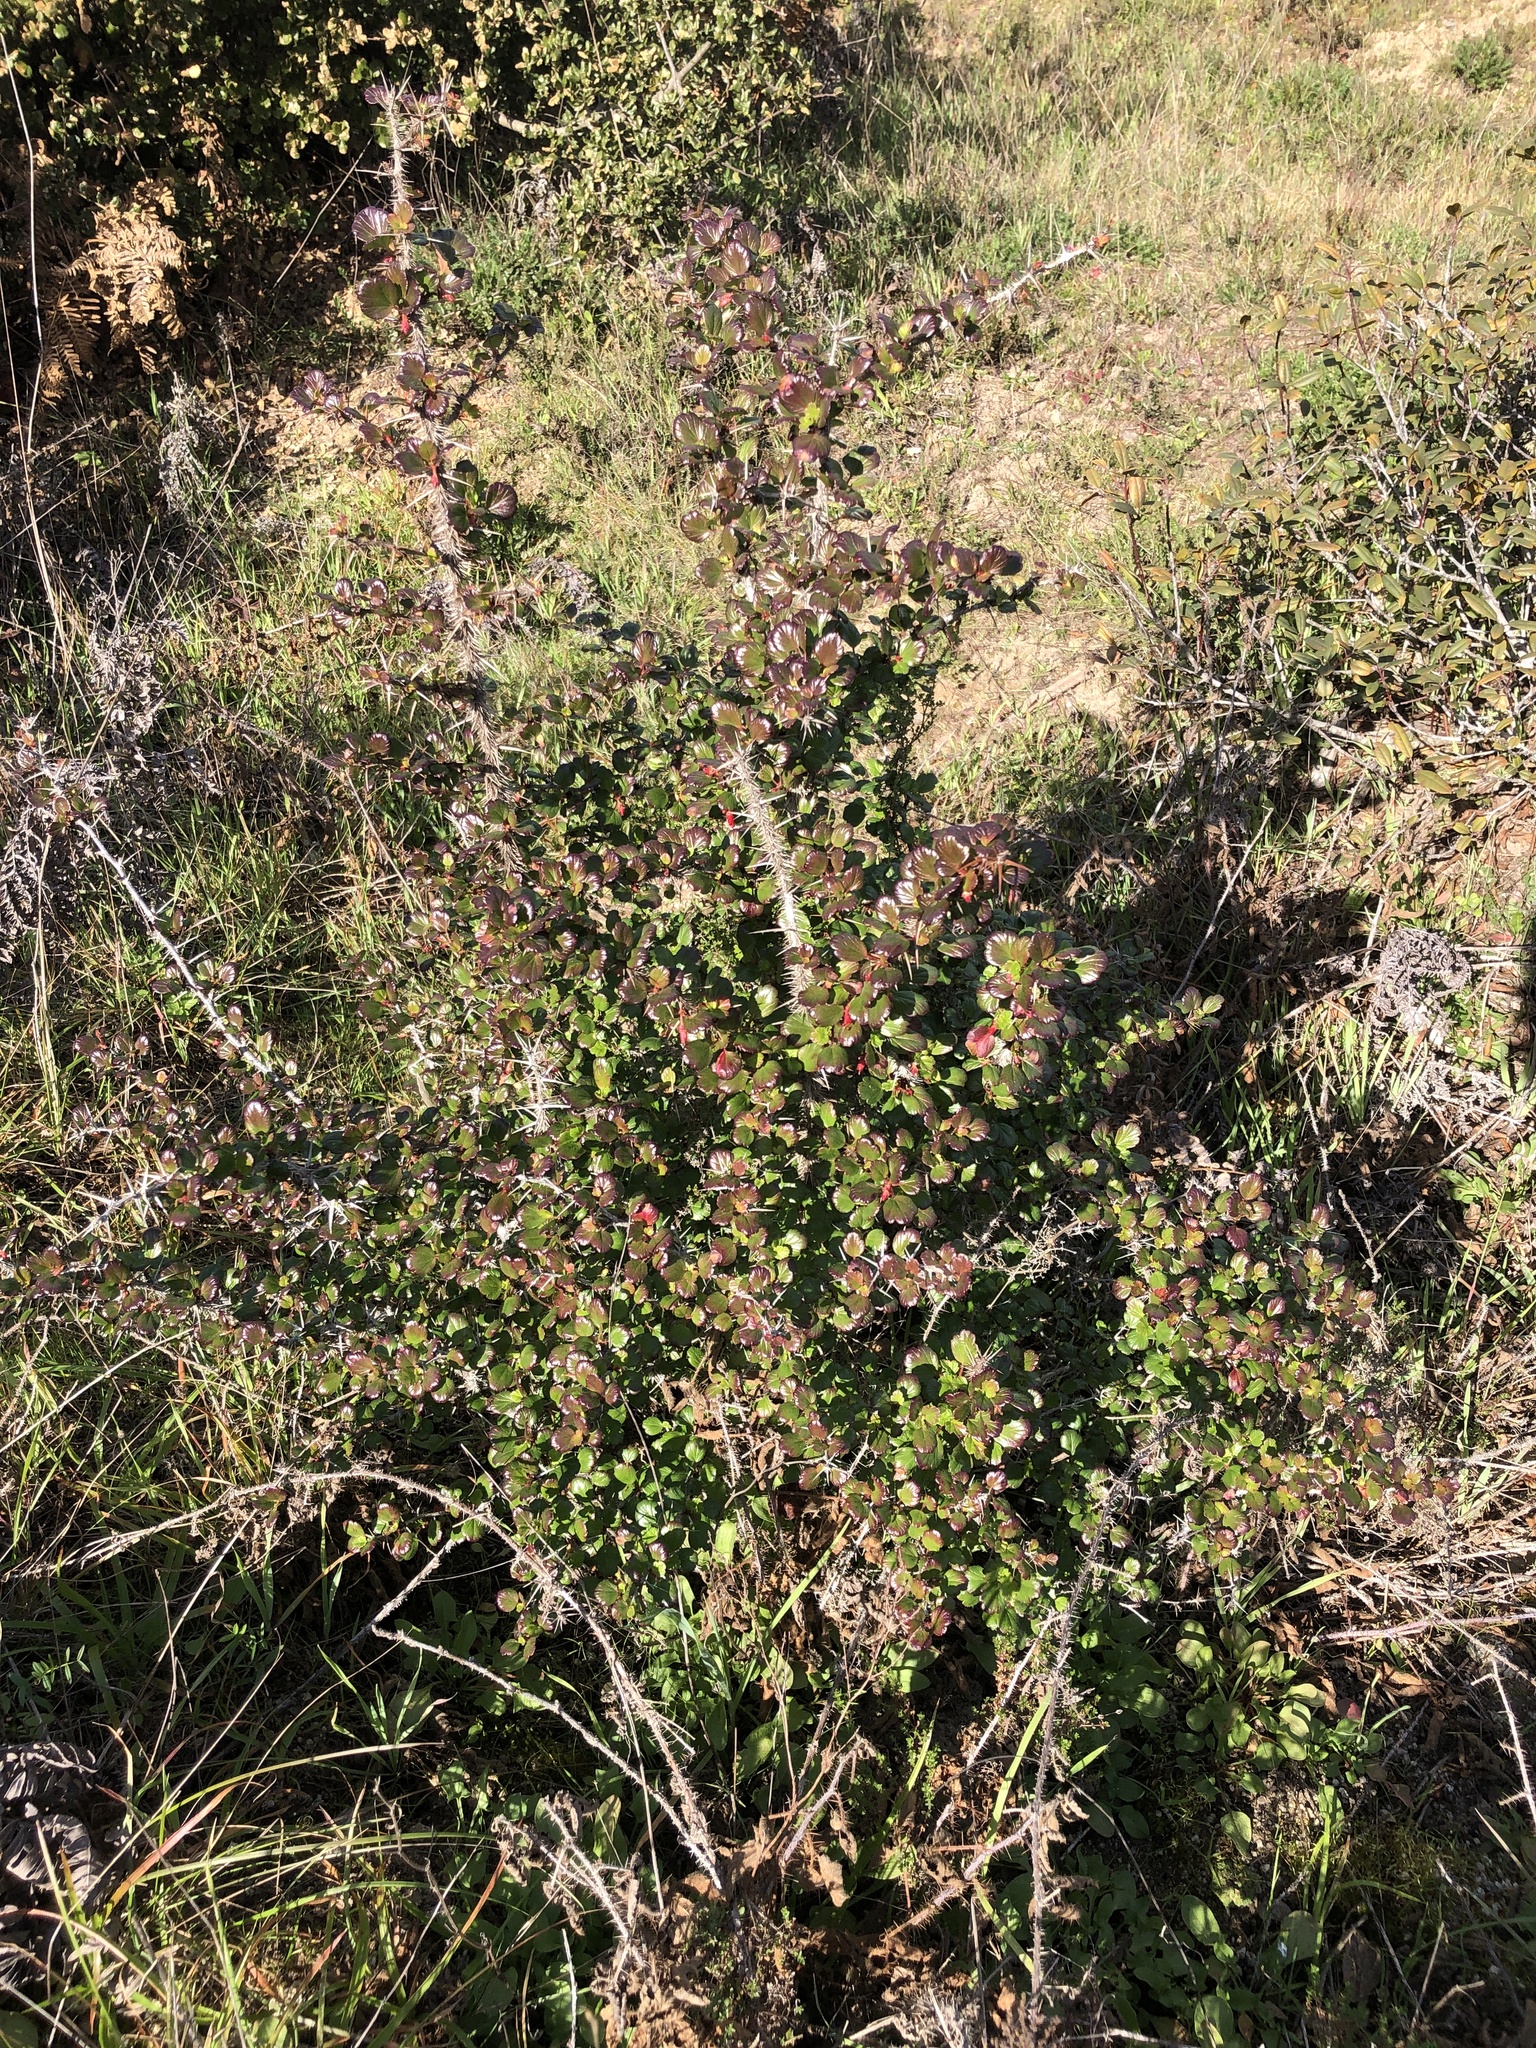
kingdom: Plantae
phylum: Tracheophyta
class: Magnoliopsida
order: Saxifragales
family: Grossulariaceae
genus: Ribes
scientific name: Ribes speciosum
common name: Fuchsia-flower gooseberry
